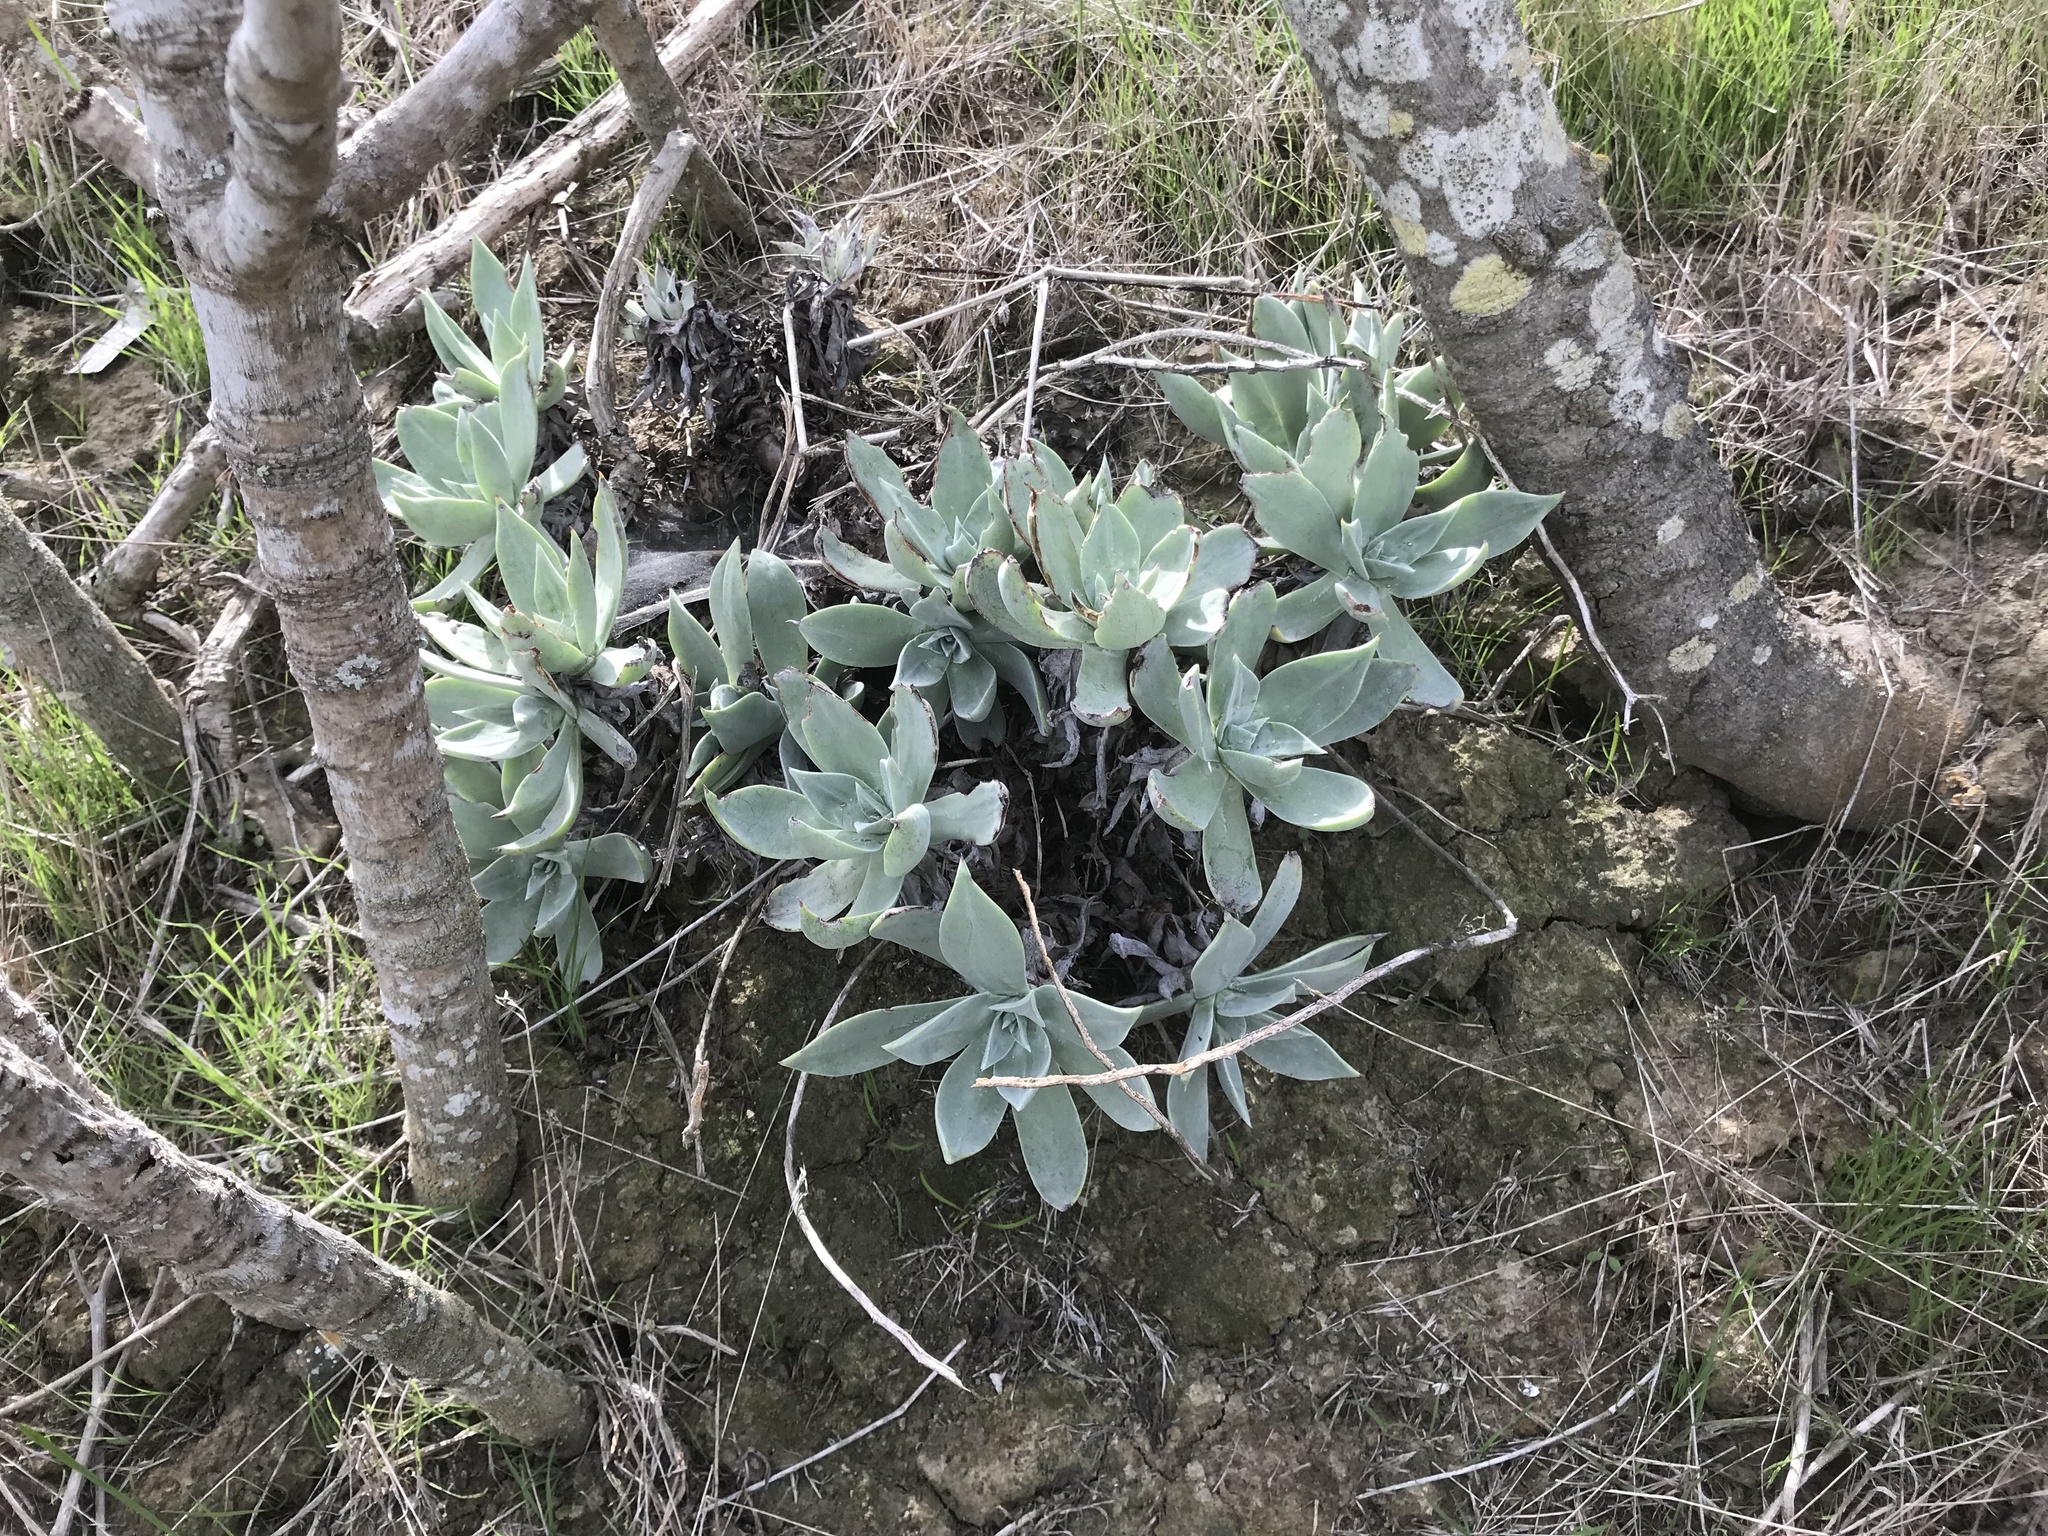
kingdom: Plantae
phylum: Tracheophyta
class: Magnoliopsida
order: Saxifragales
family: Crassulaceae
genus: Dudleya
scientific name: Dudleya traskiae
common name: Santa barbara island dudleya
